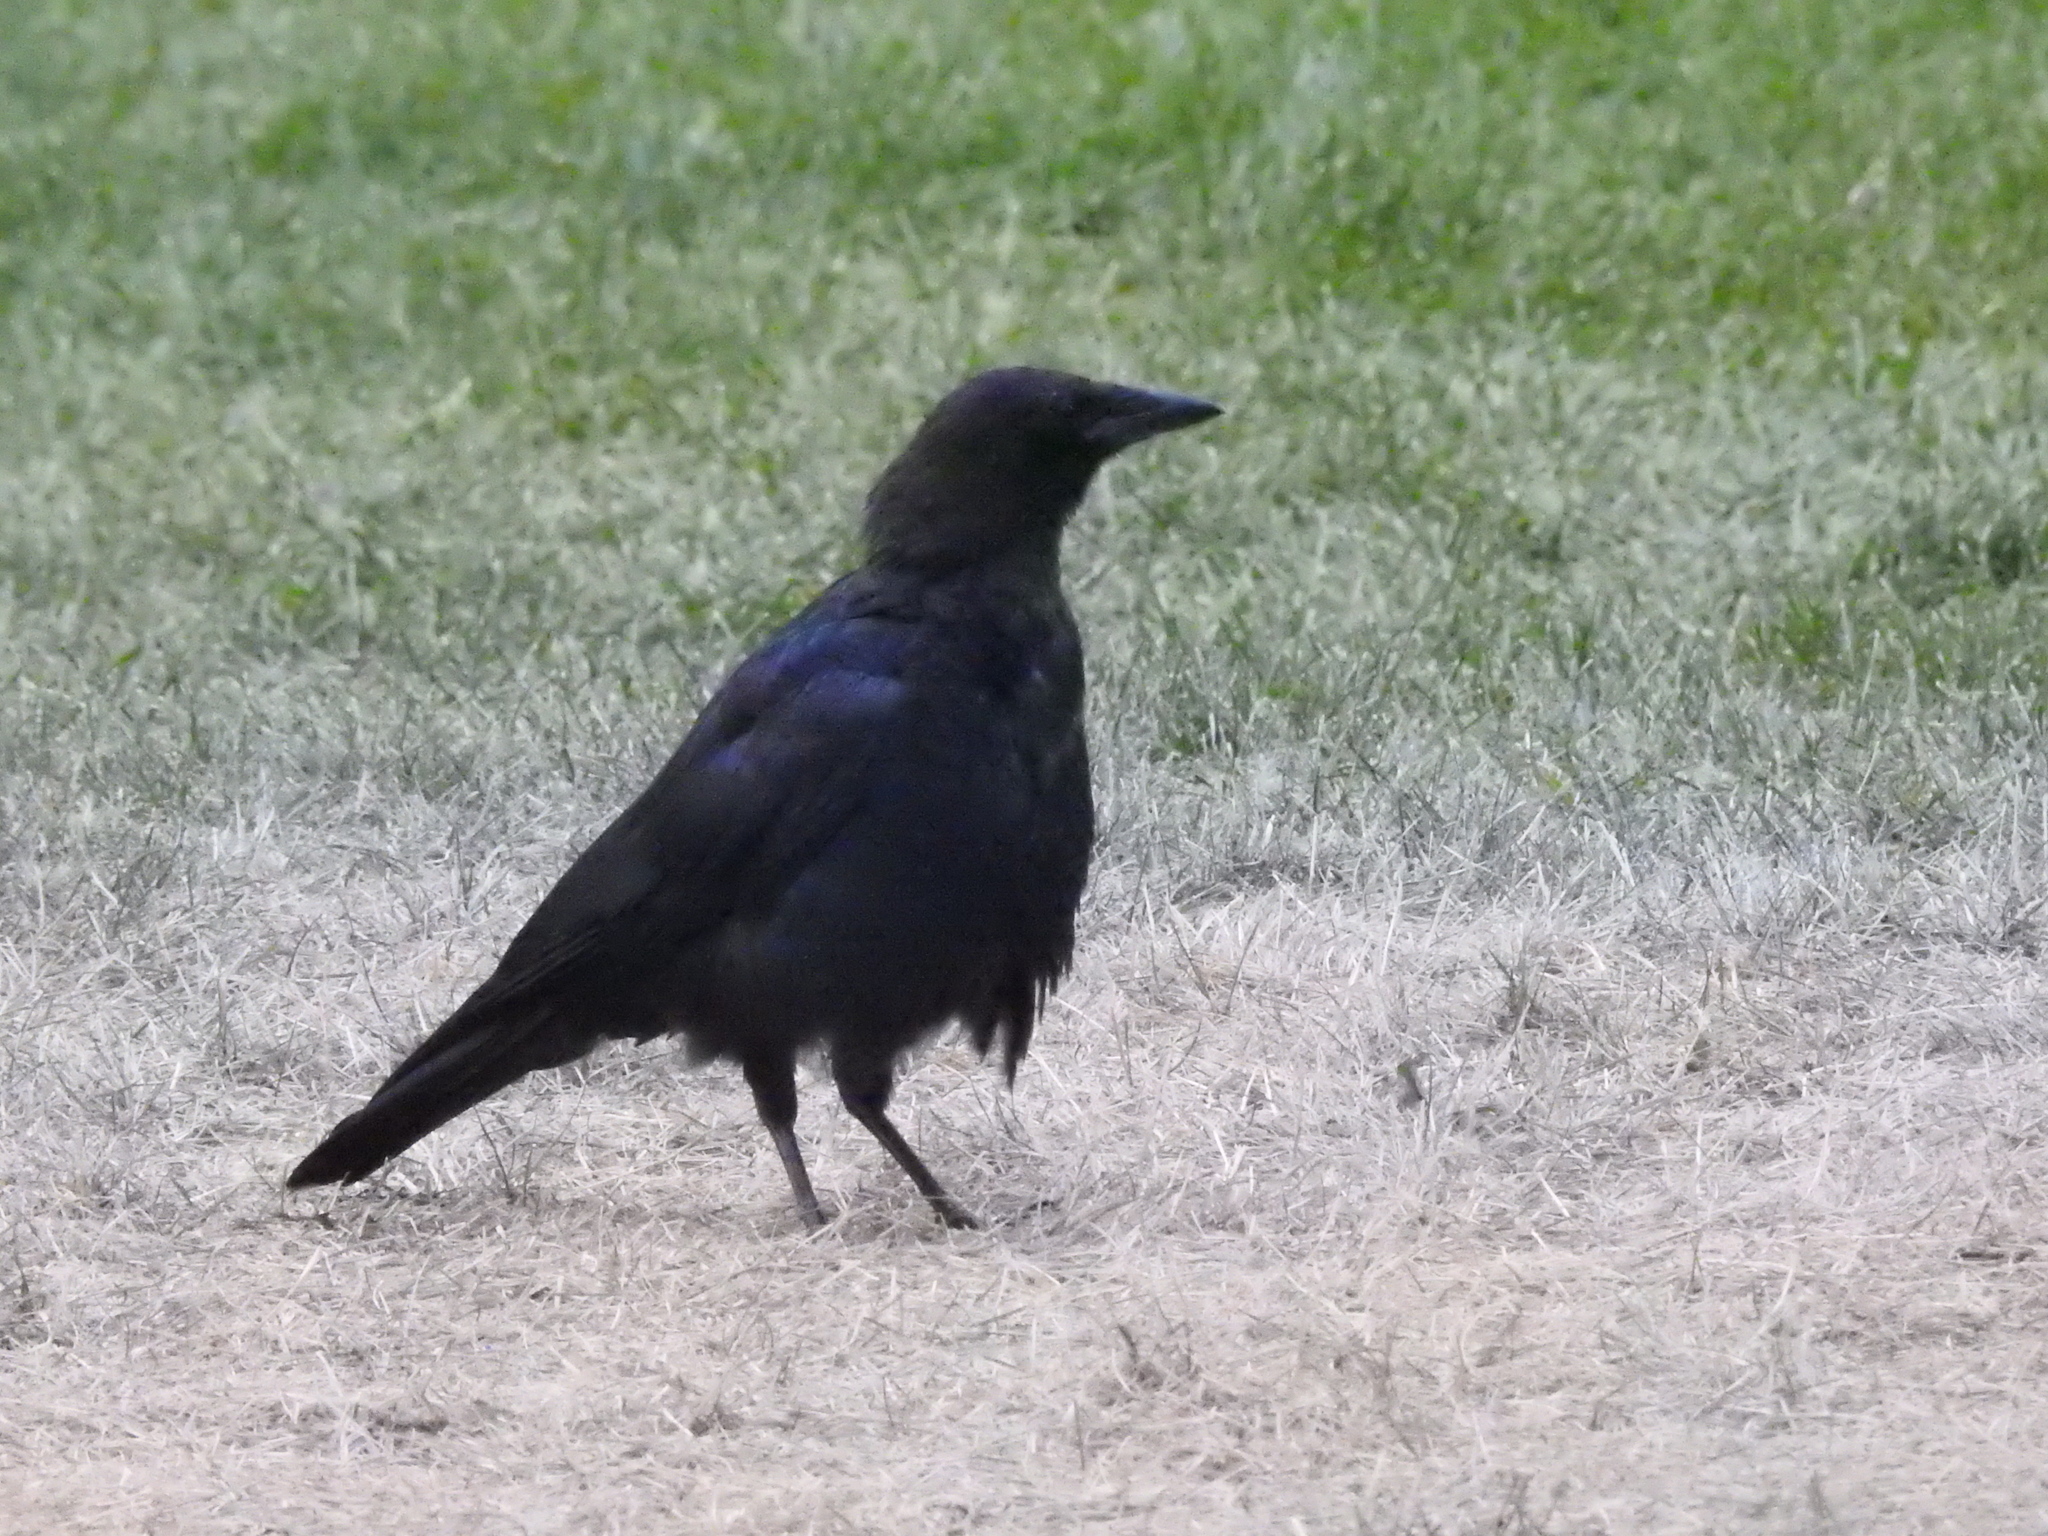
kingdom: Animalia
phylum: Chordata
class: Aves
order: Passeriformes
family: Corvidae
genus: Corvus
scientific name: Corvus brachyrhynchos
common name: American crow
